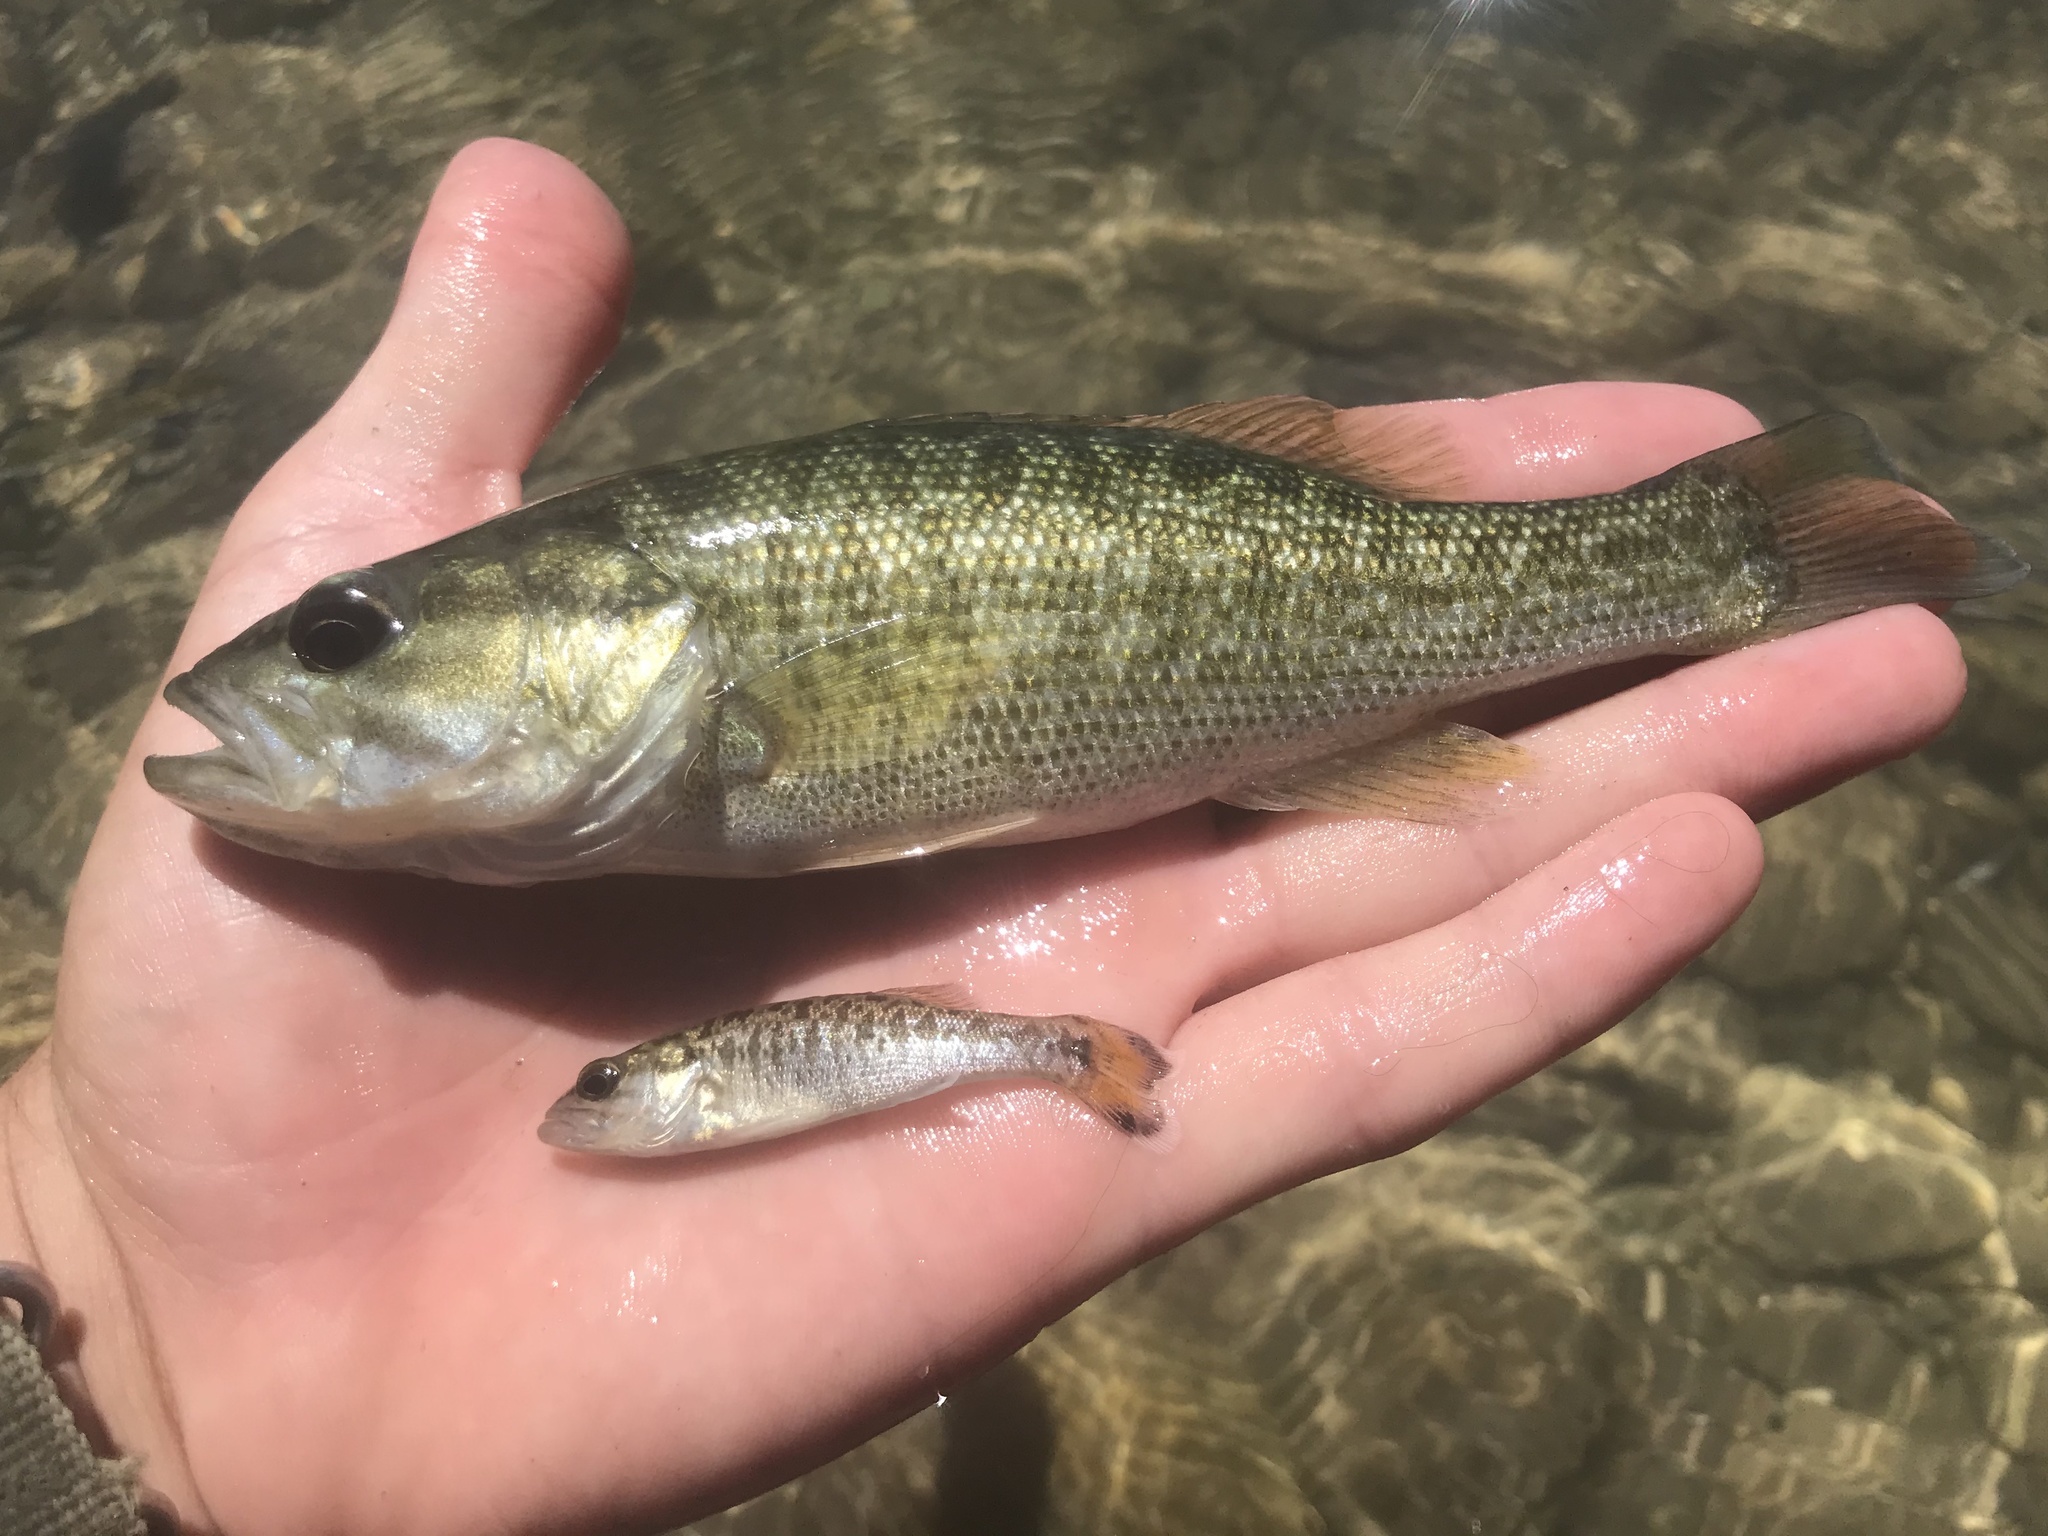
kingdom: Animalia
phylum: Chordata
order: Perciformes
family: Centrarchidae
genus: Micropterus
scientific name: Micropterus treculii
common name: Guadalupe bass
